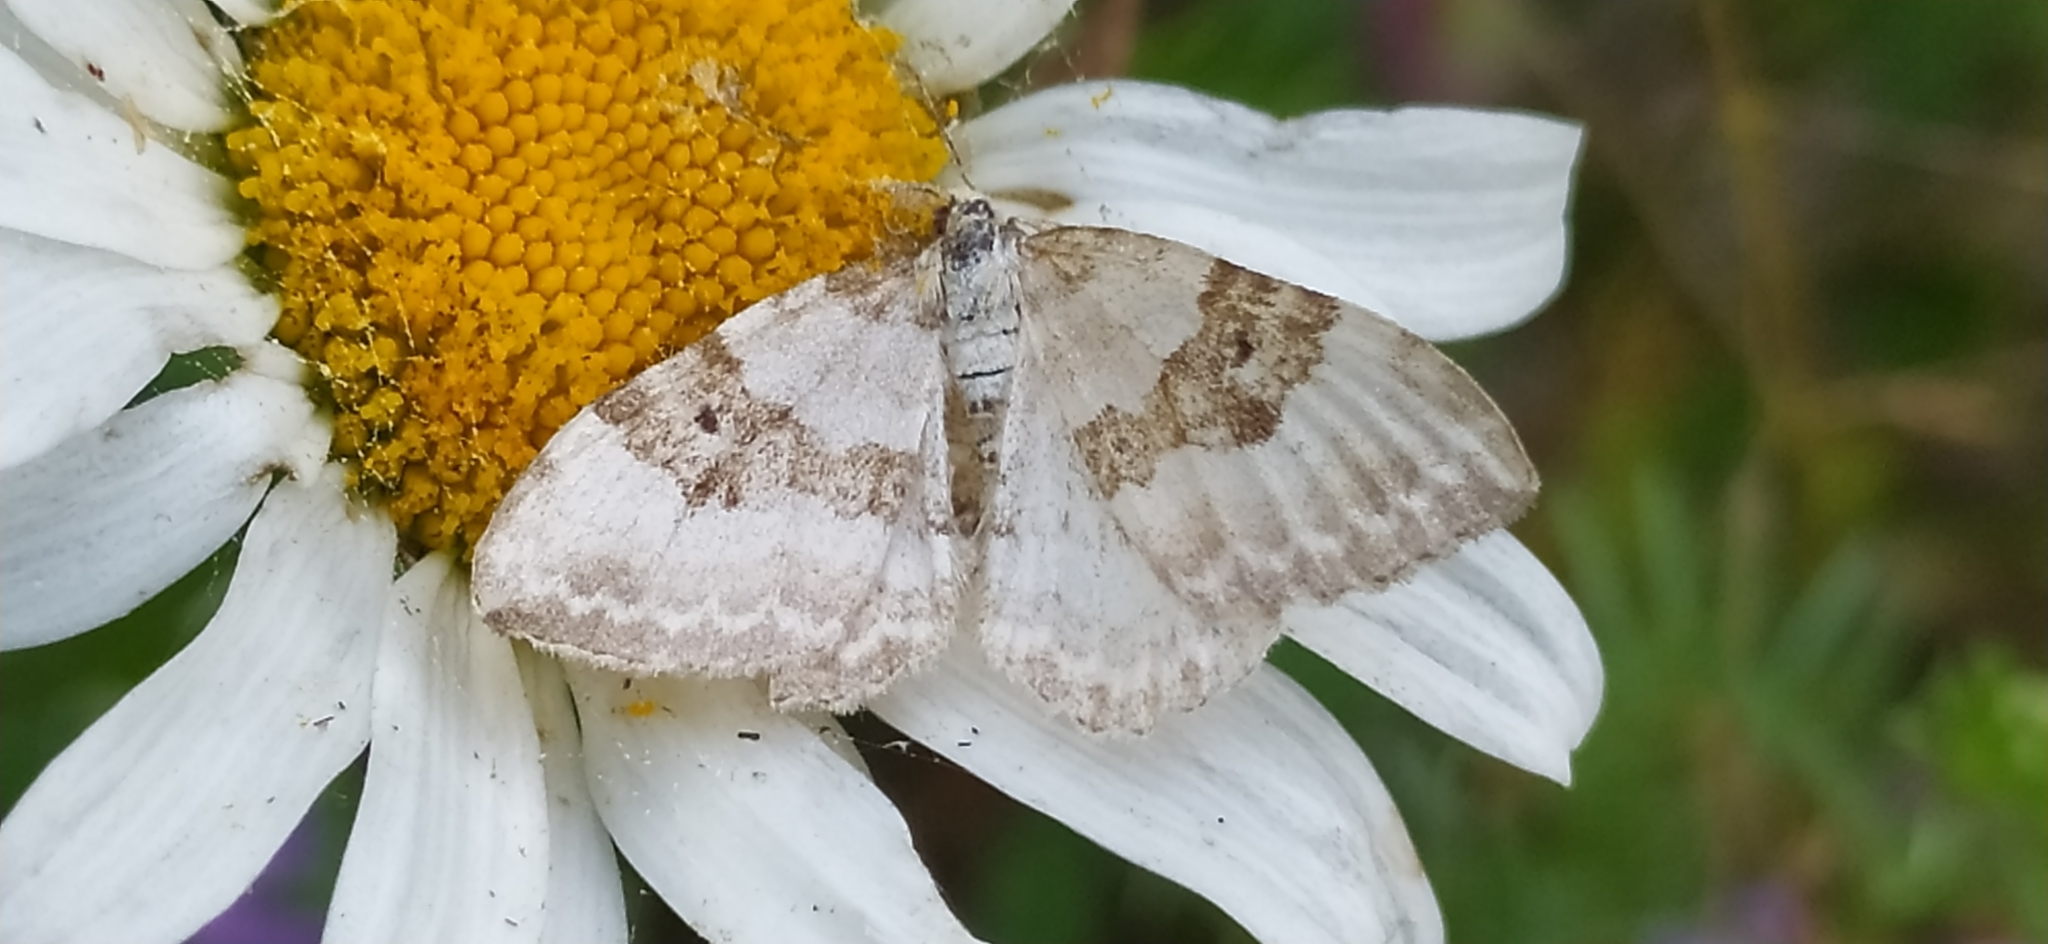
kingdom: Animalia
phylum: Arthropoda
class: Insecta
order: Lepidoptera
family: Geometridae
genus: Xanthorhoe
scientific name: Xanthorhoe montanata
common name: Silver-ground carpet
